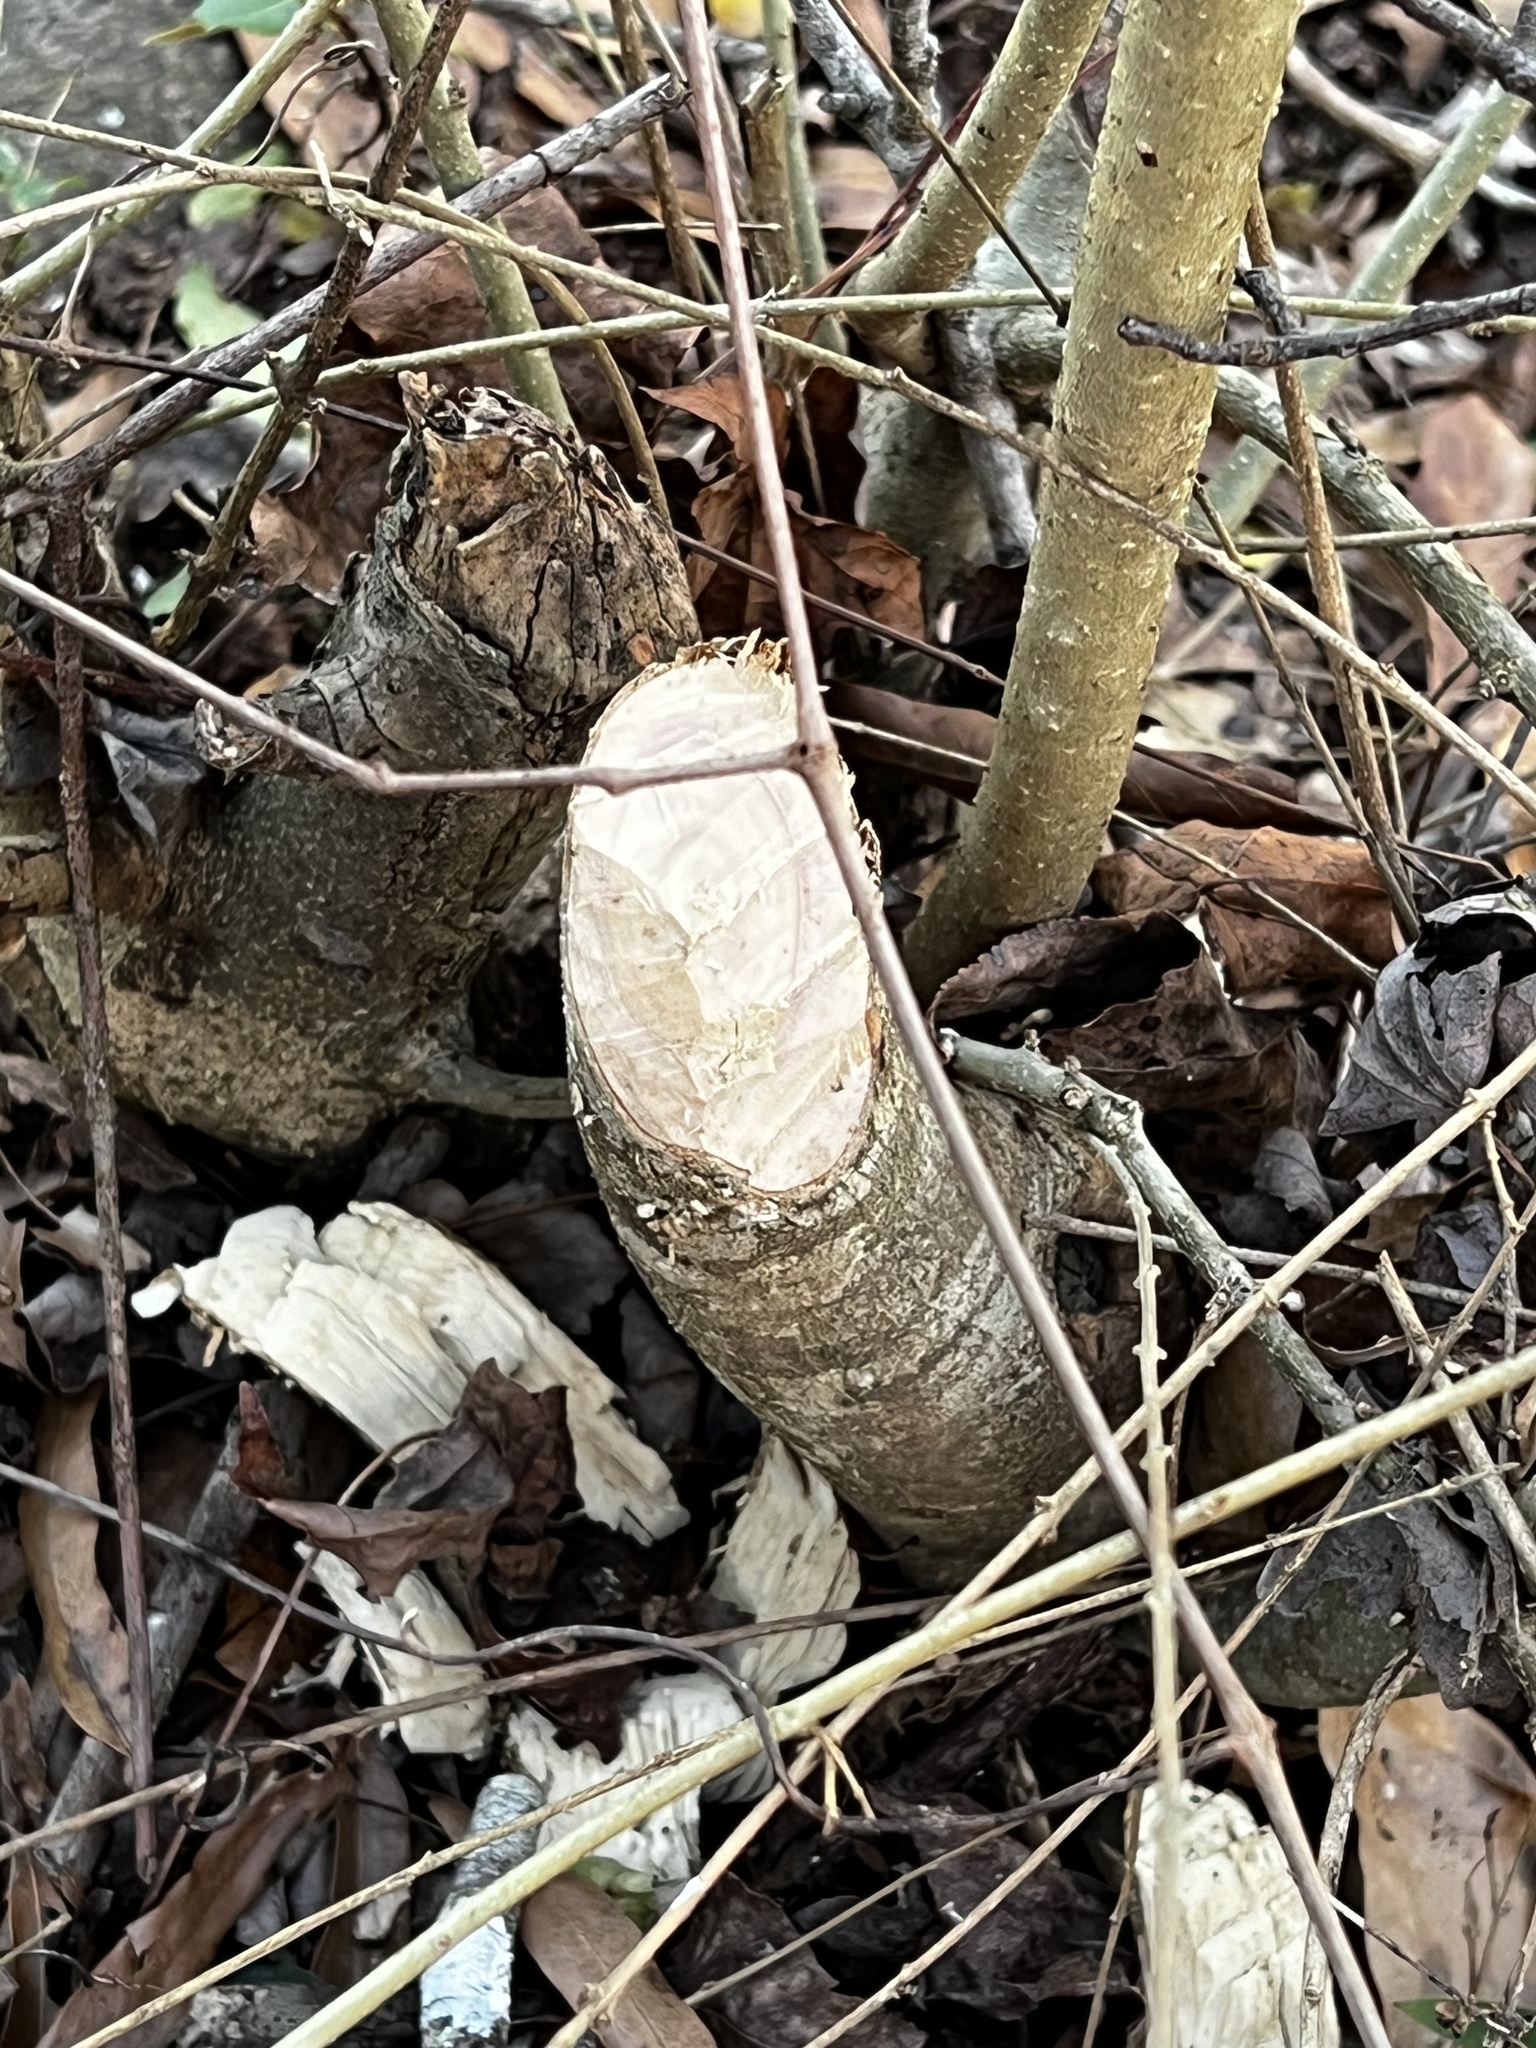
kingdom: Animalia
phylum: Chordata
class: Mammalia
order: Rodentia
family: Castoridae
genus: Castor
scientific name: Castor canadensis
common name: American beaver
